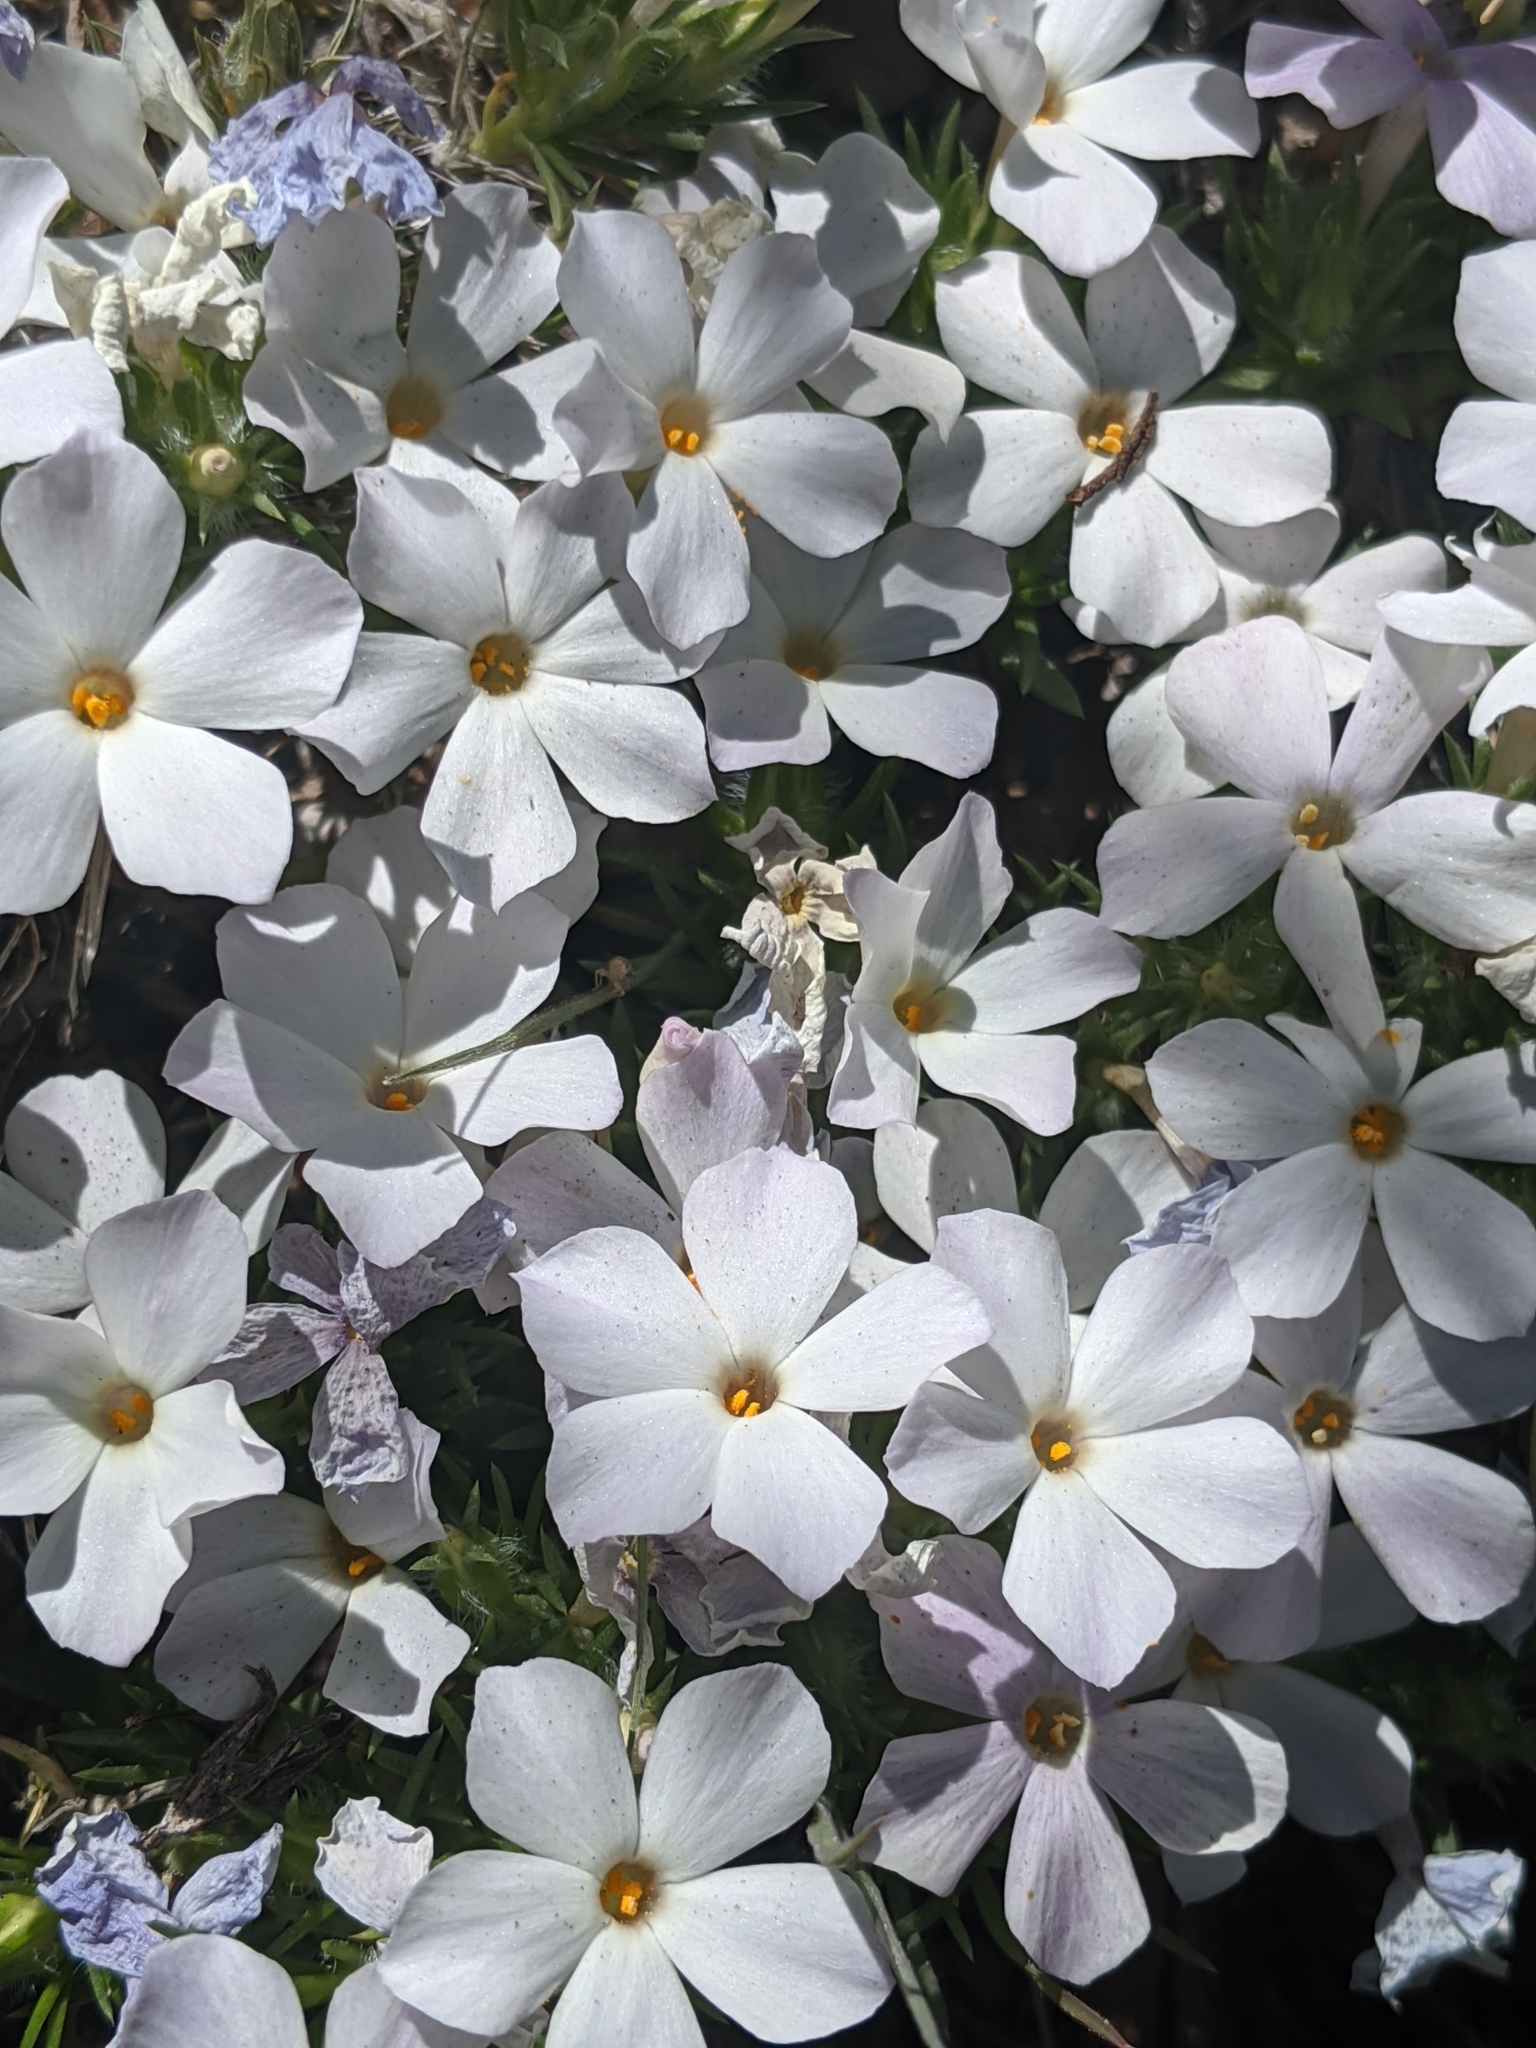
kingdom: Plantae
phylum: Tracheophyta
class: Magnoliopsida
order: Ericales
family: Polemoniaceae
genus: Phlox
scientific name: Phlox austromontana
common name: Desert phlox
